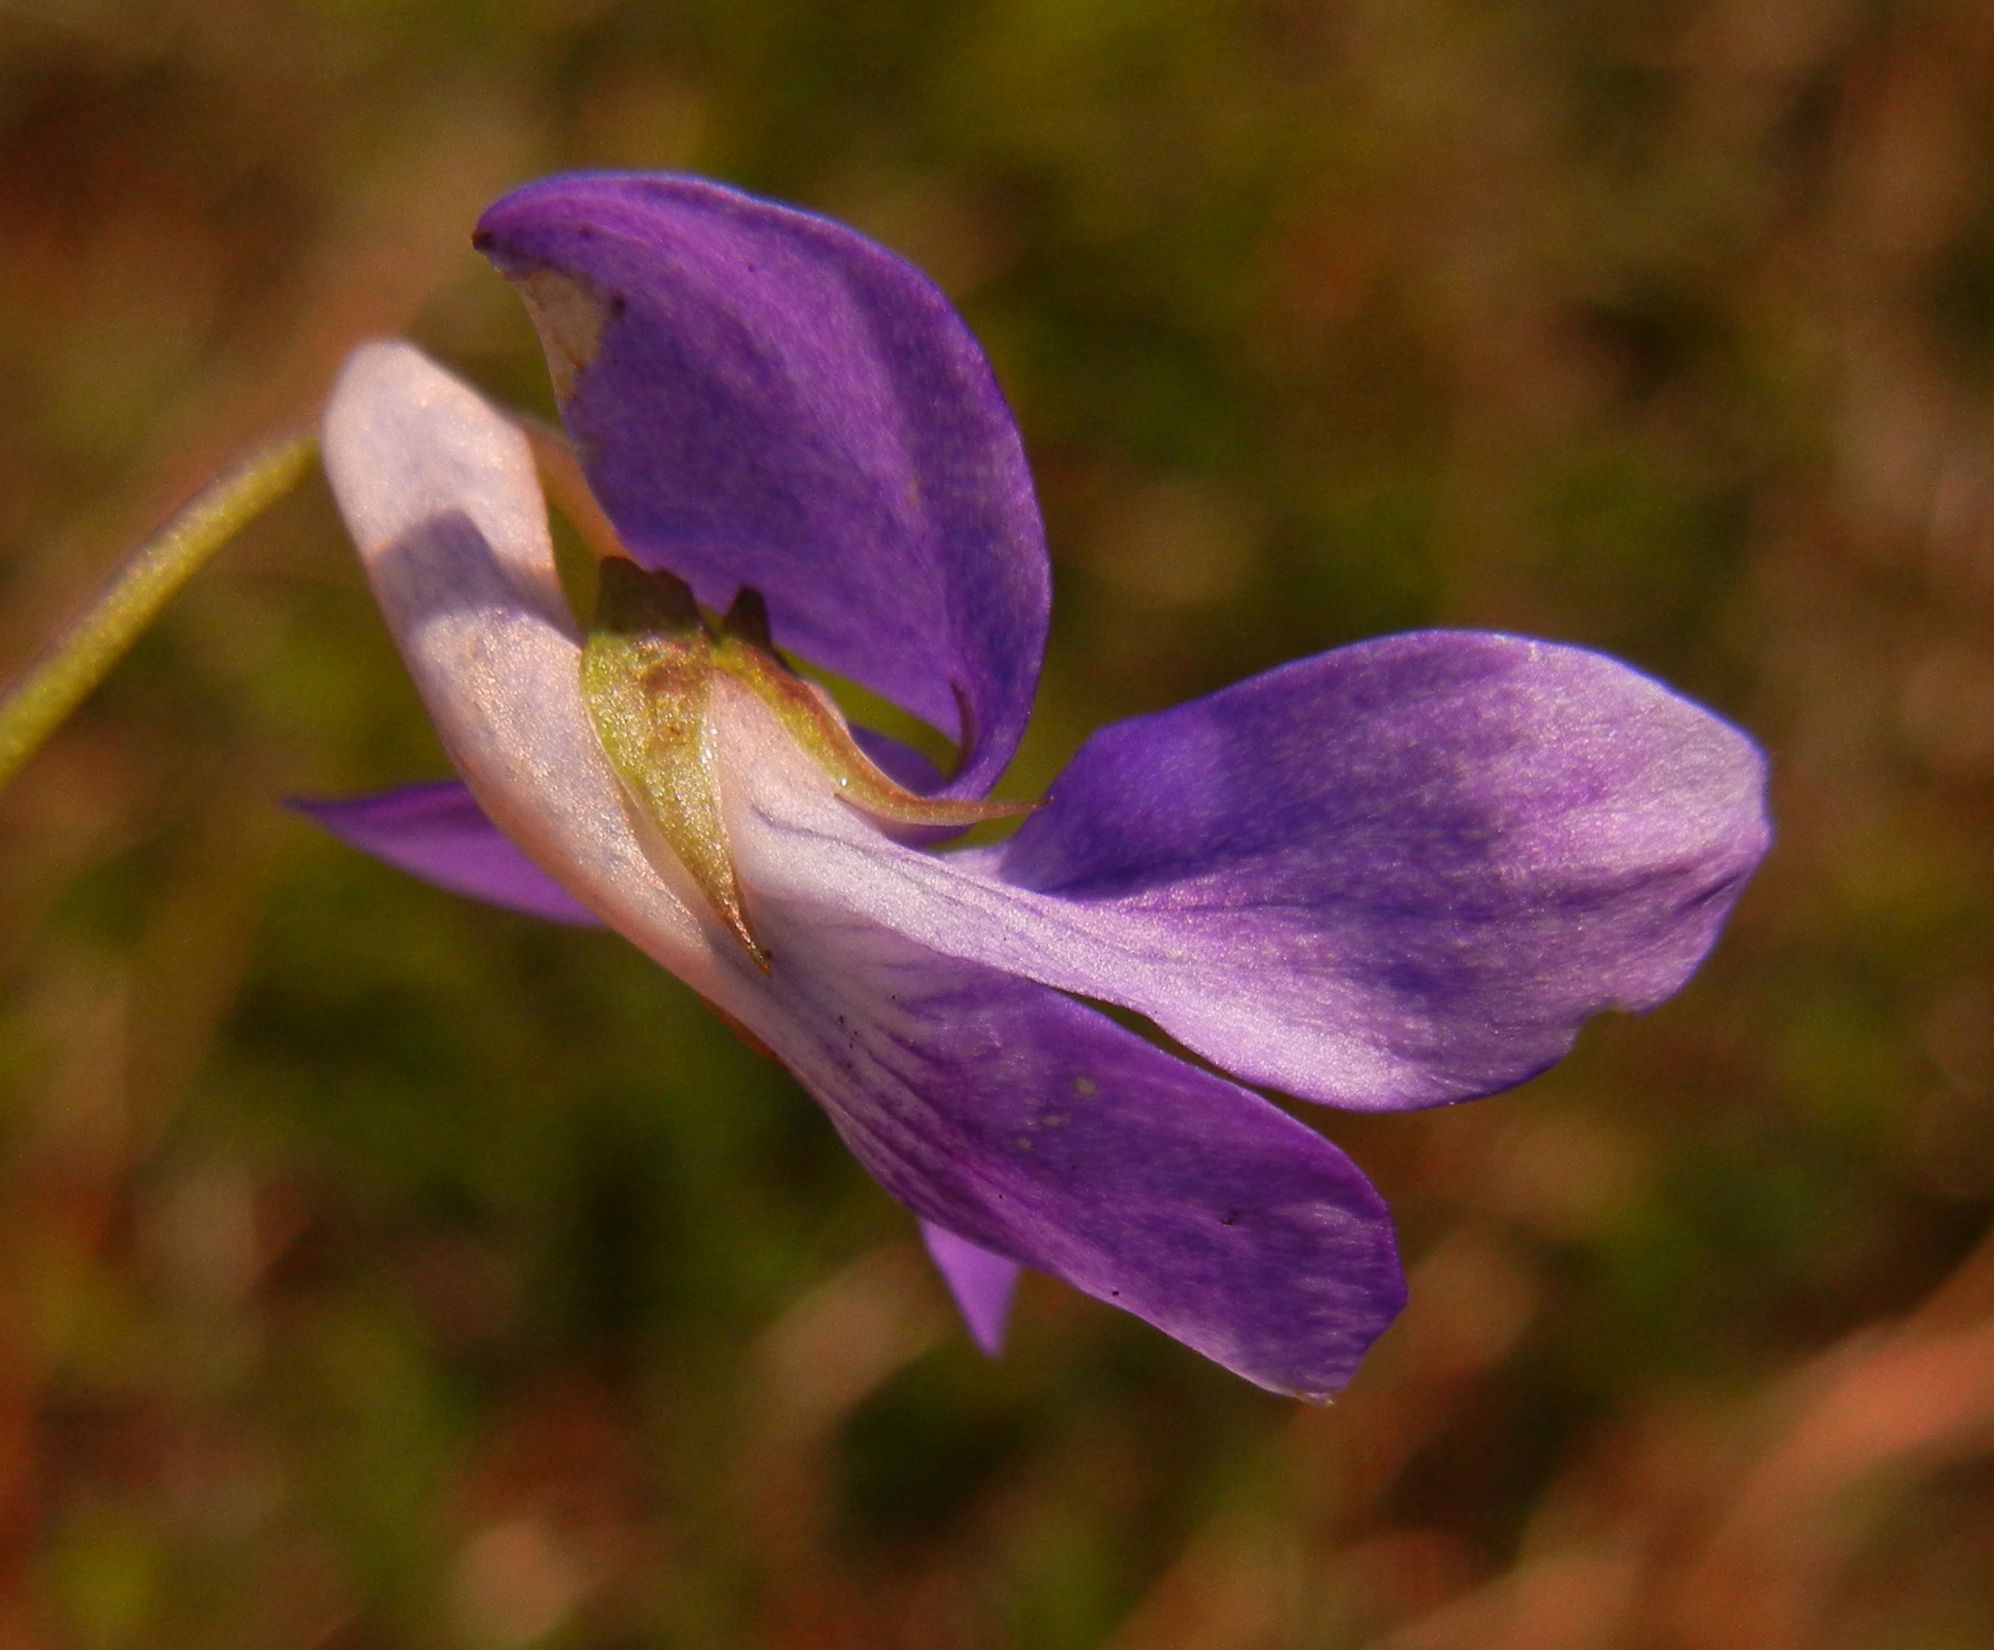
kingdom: Plantae
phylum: Tracheophyta
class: Magnoliopsida
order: Malpighiales
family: Violaceae
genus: Viola
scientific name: Viola riviniana
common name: Common dog-violet
